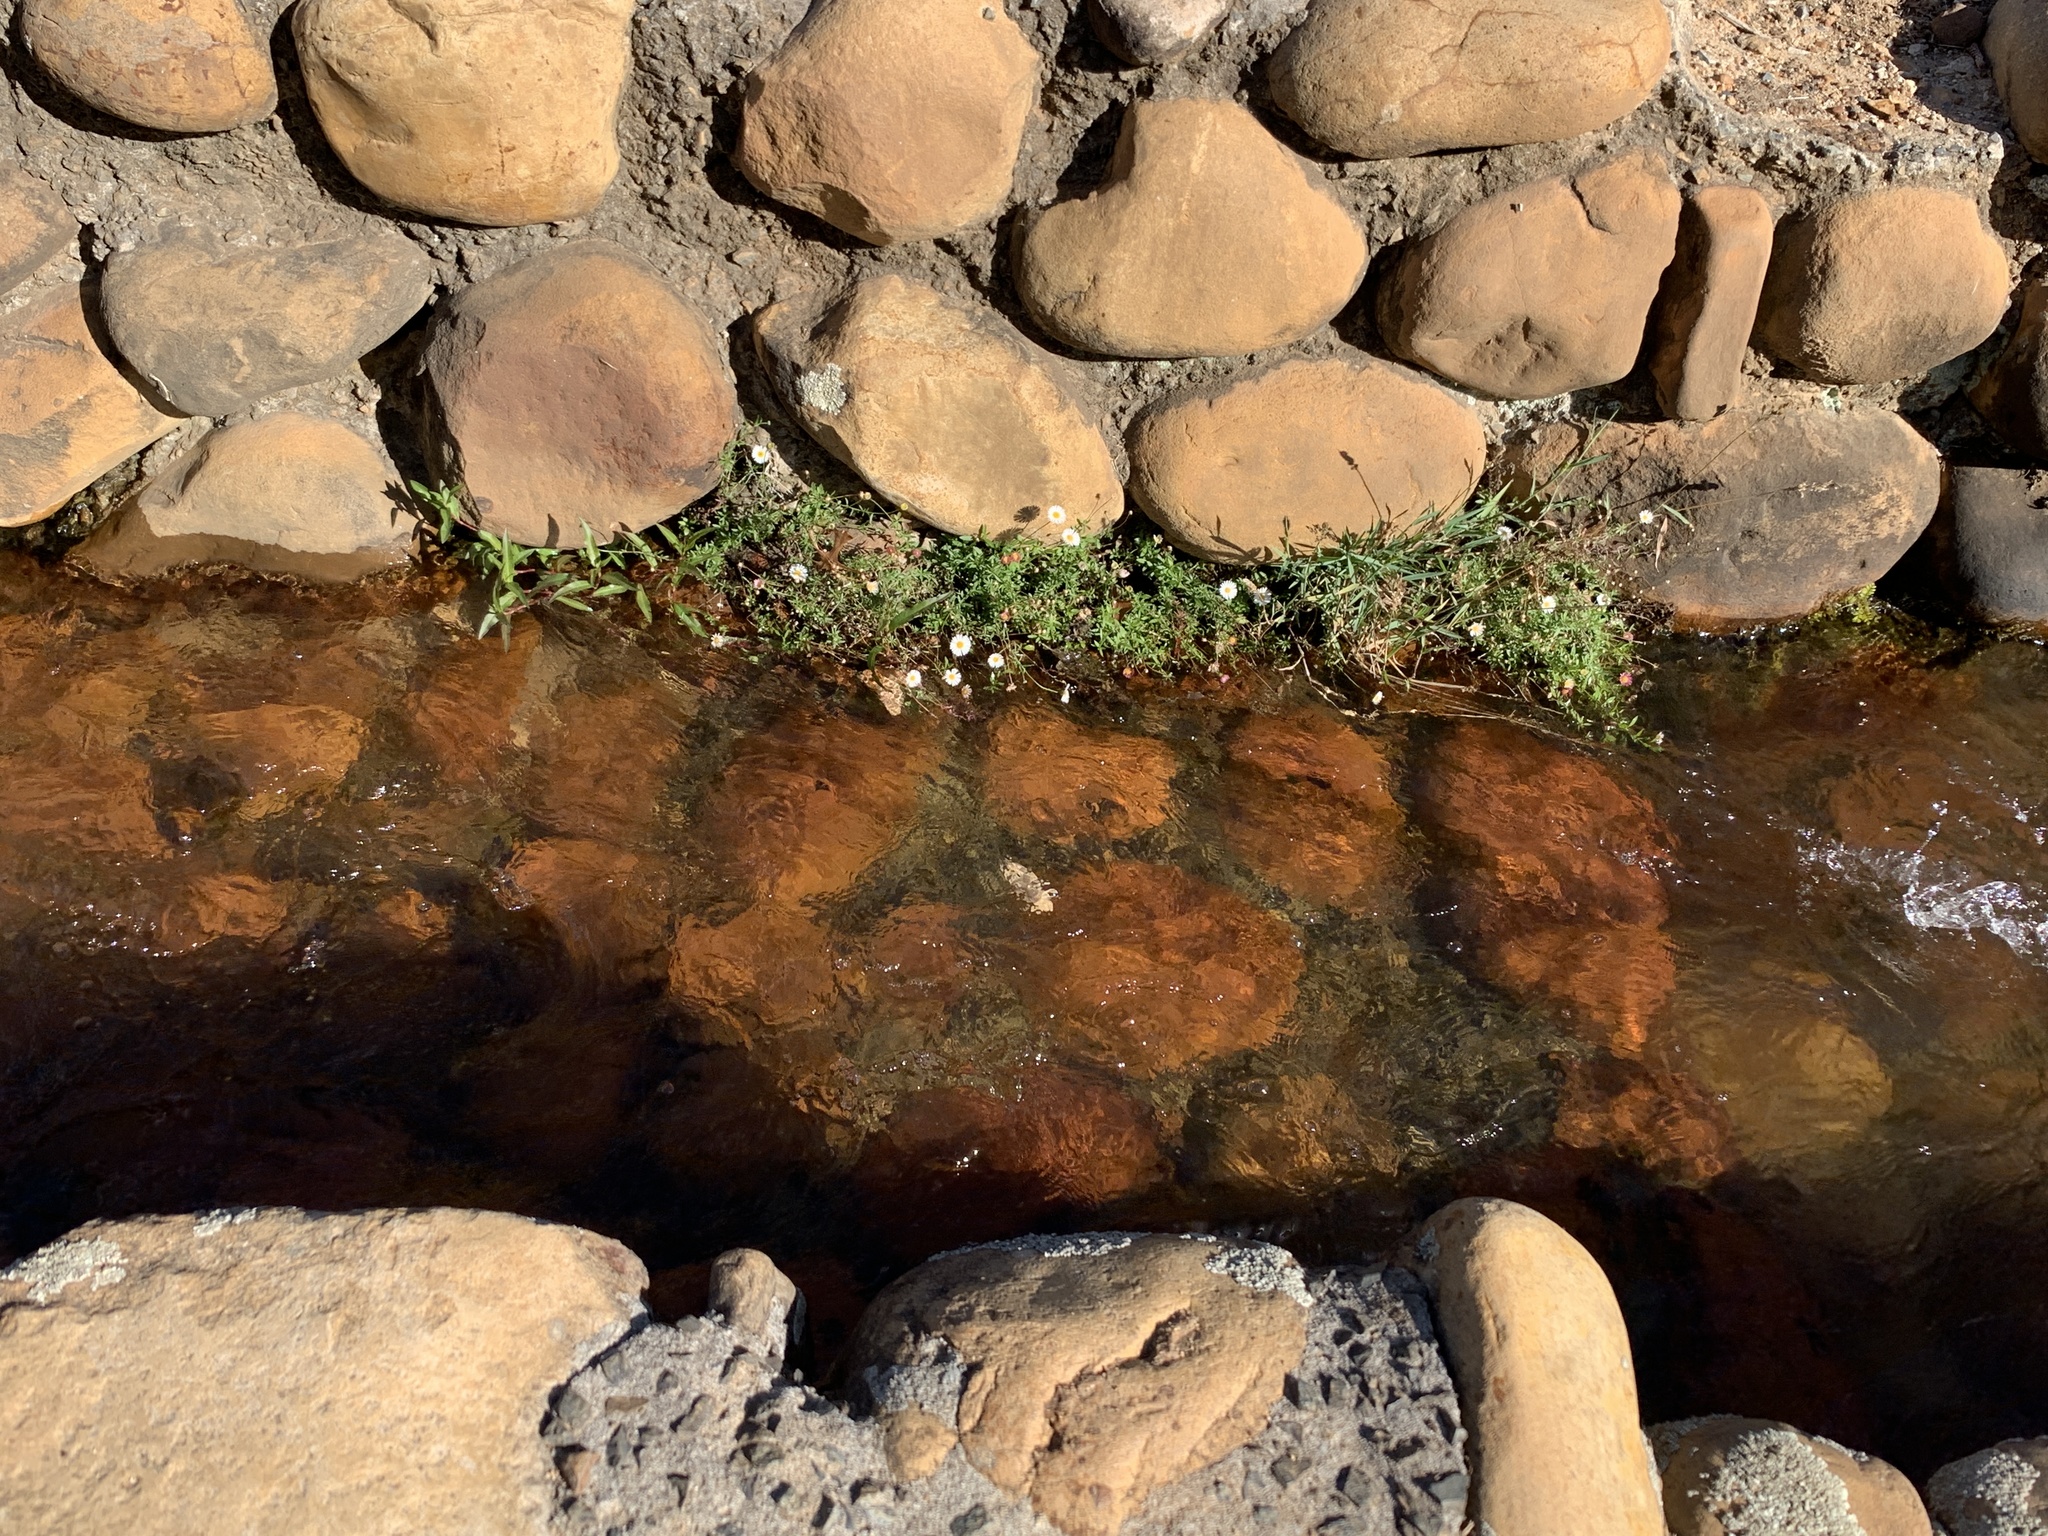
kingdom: Plantae
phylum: Tracheophyta
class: Magnoliopsida
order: Asterales
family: Asteraceae
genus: Erigeron
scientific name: Erigeron karvinskianus
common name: Mexican fleabane
